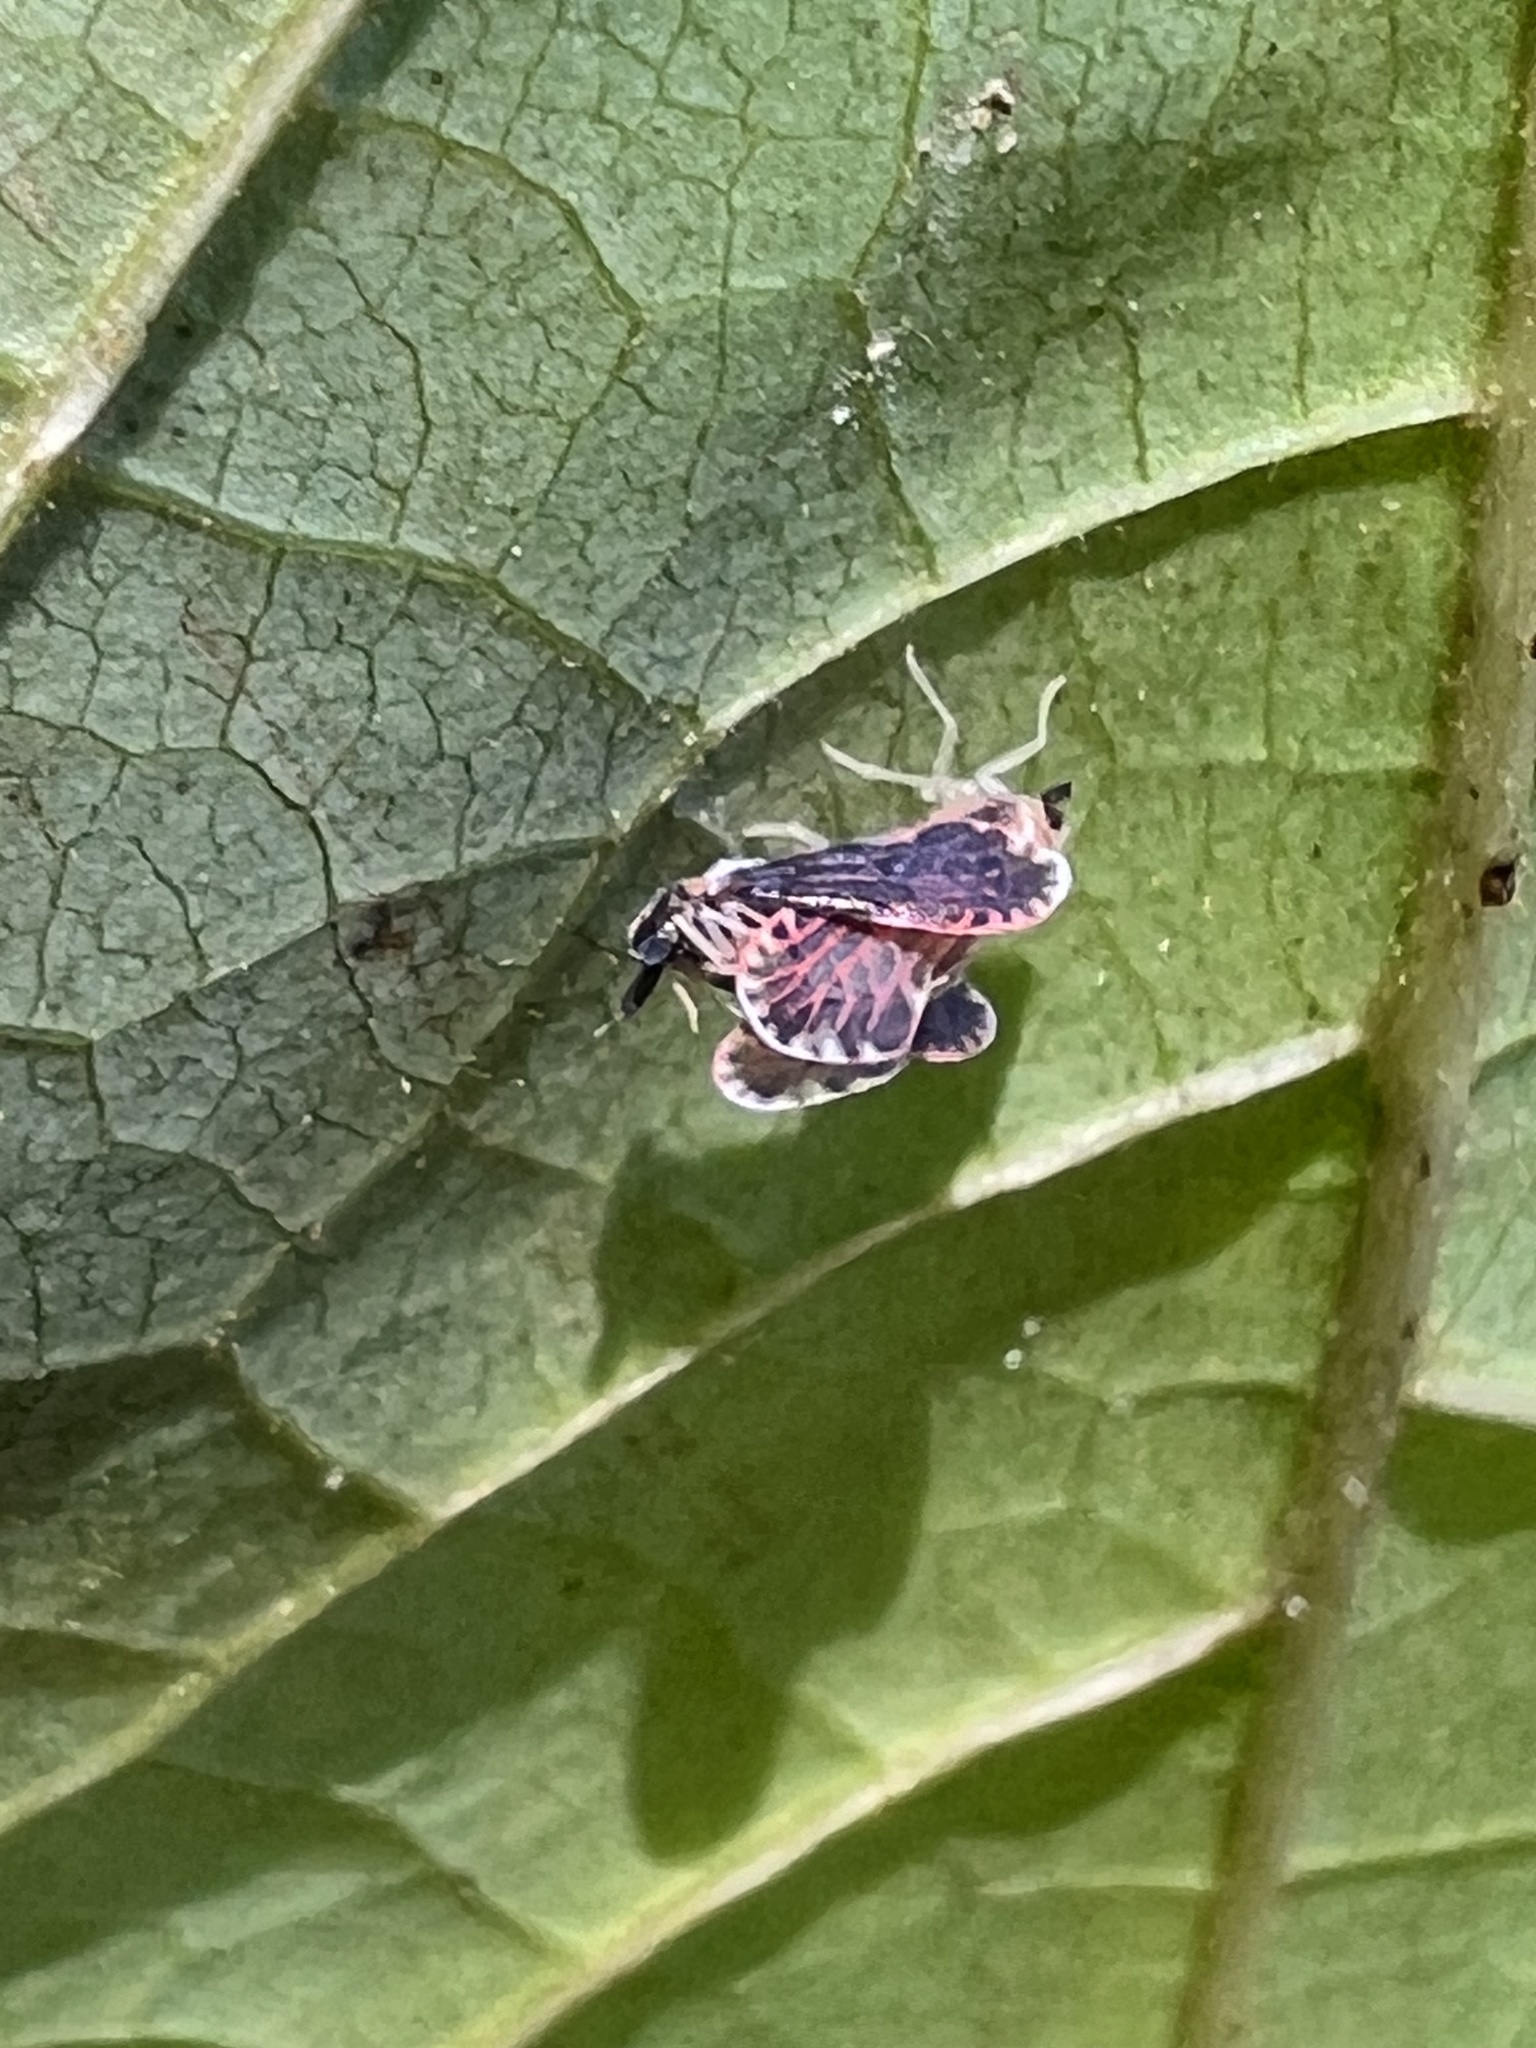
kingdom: Animalia
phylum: Arthropoda
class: Insecta
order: Hemiptera
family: Derbidae
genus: Patara
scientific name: Patara vanduzei
